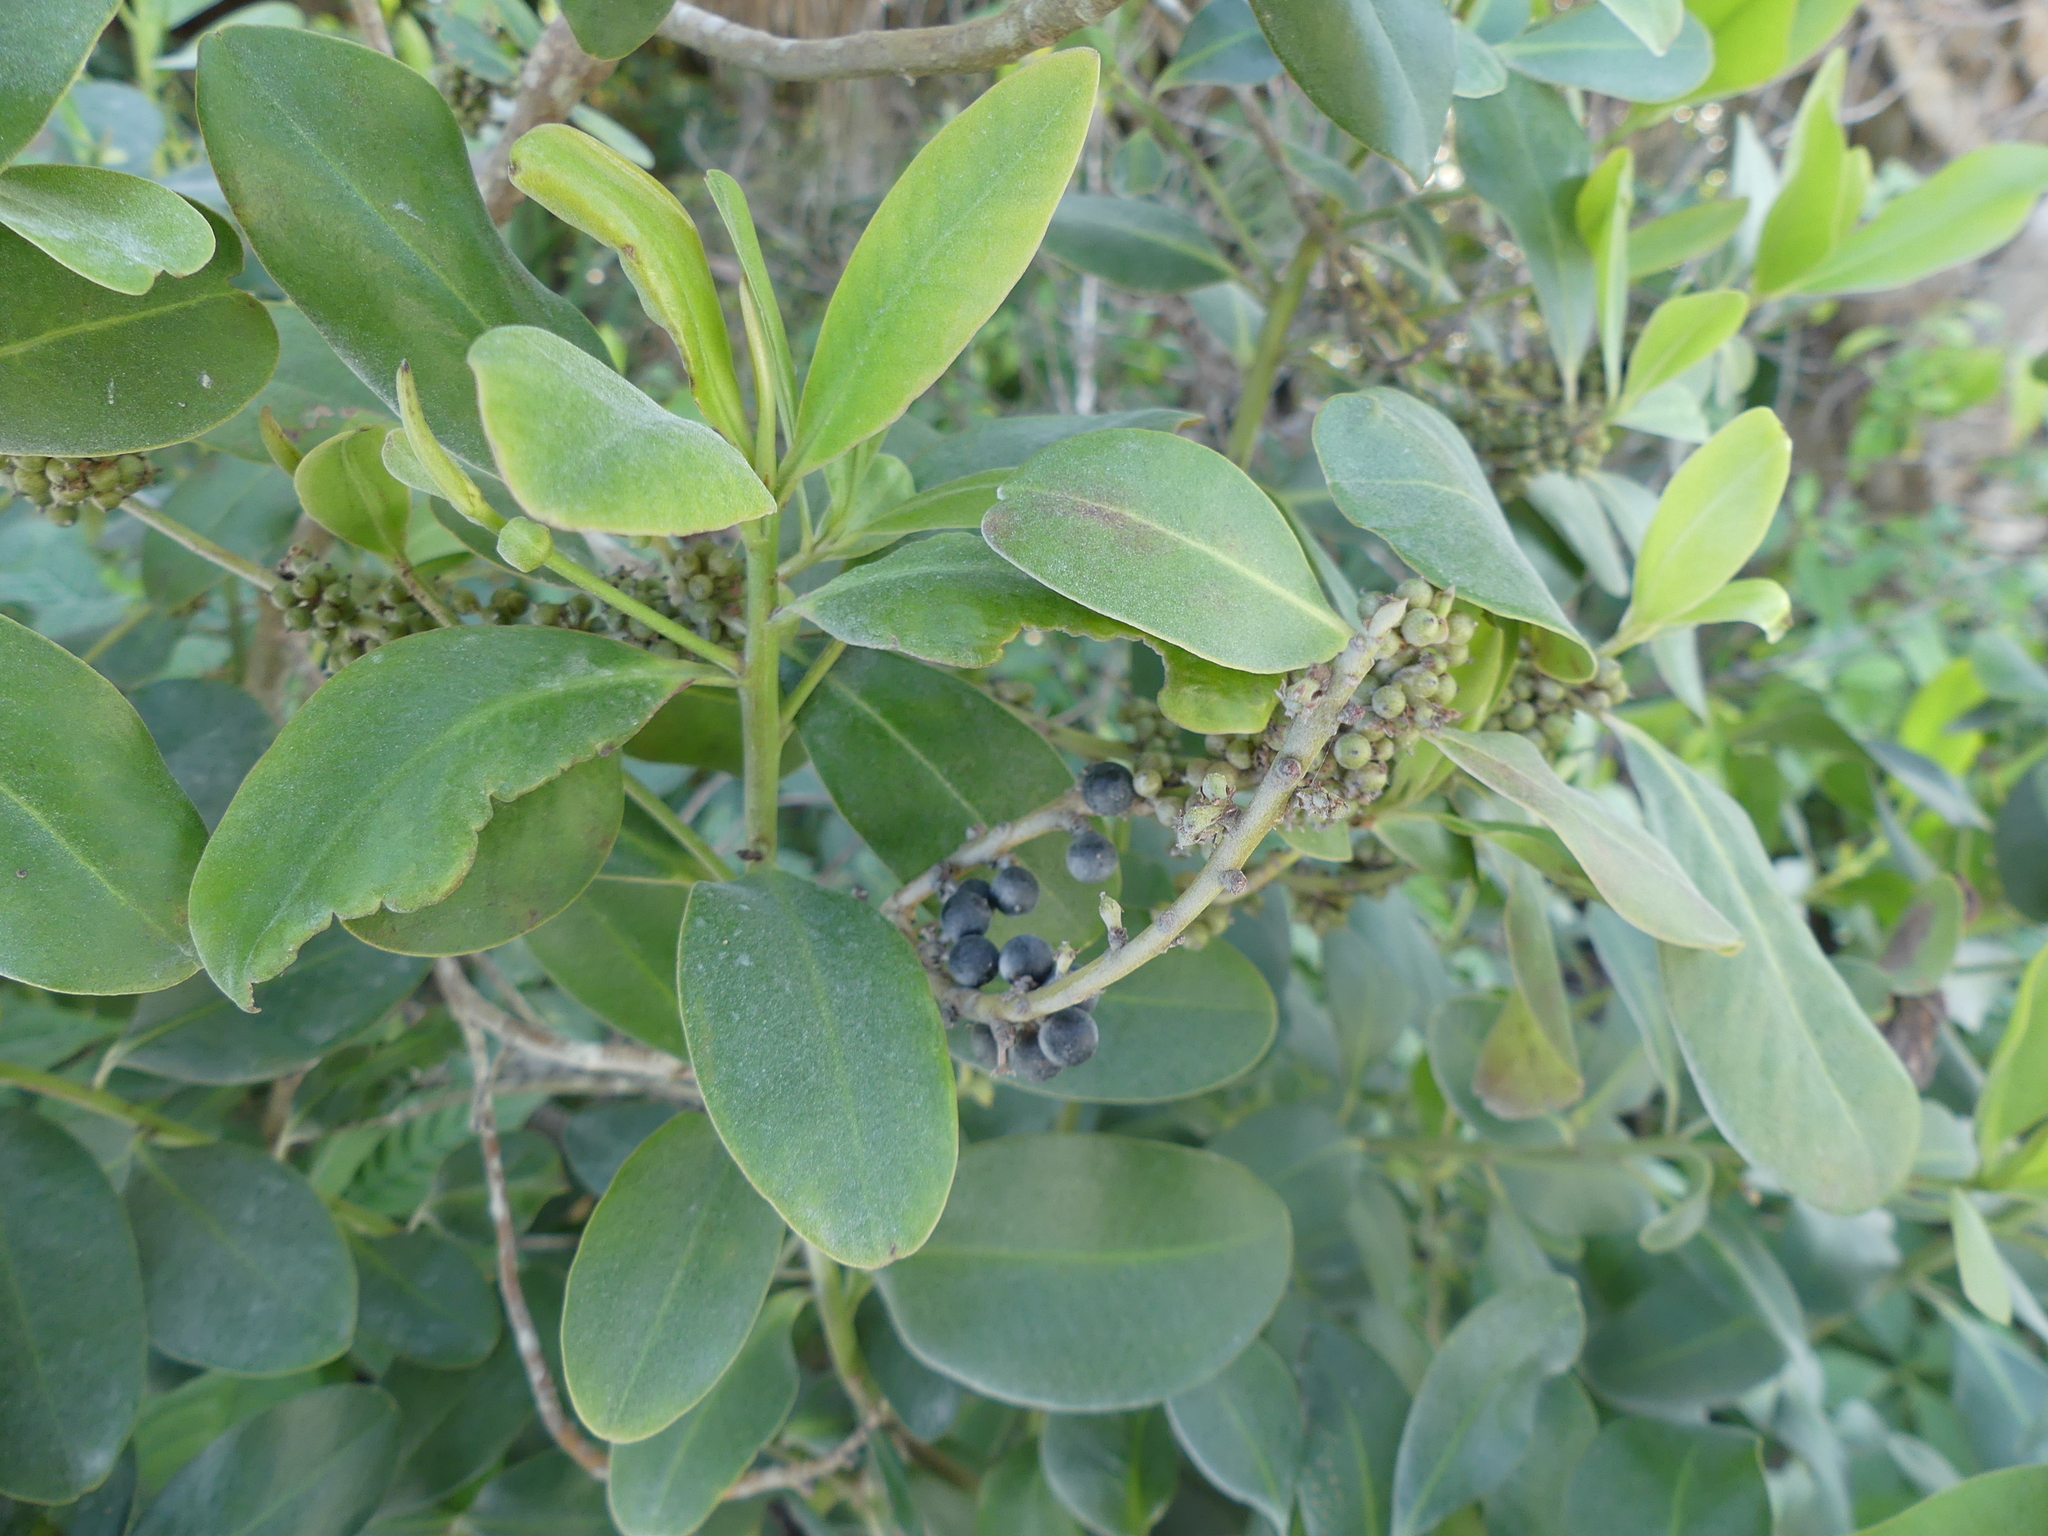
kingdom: Plantae
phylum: Tracheophyta
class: Magnoliopsida
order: Ericales
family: Primulaceae
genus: Myrsine
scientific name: Myrsine floridana
